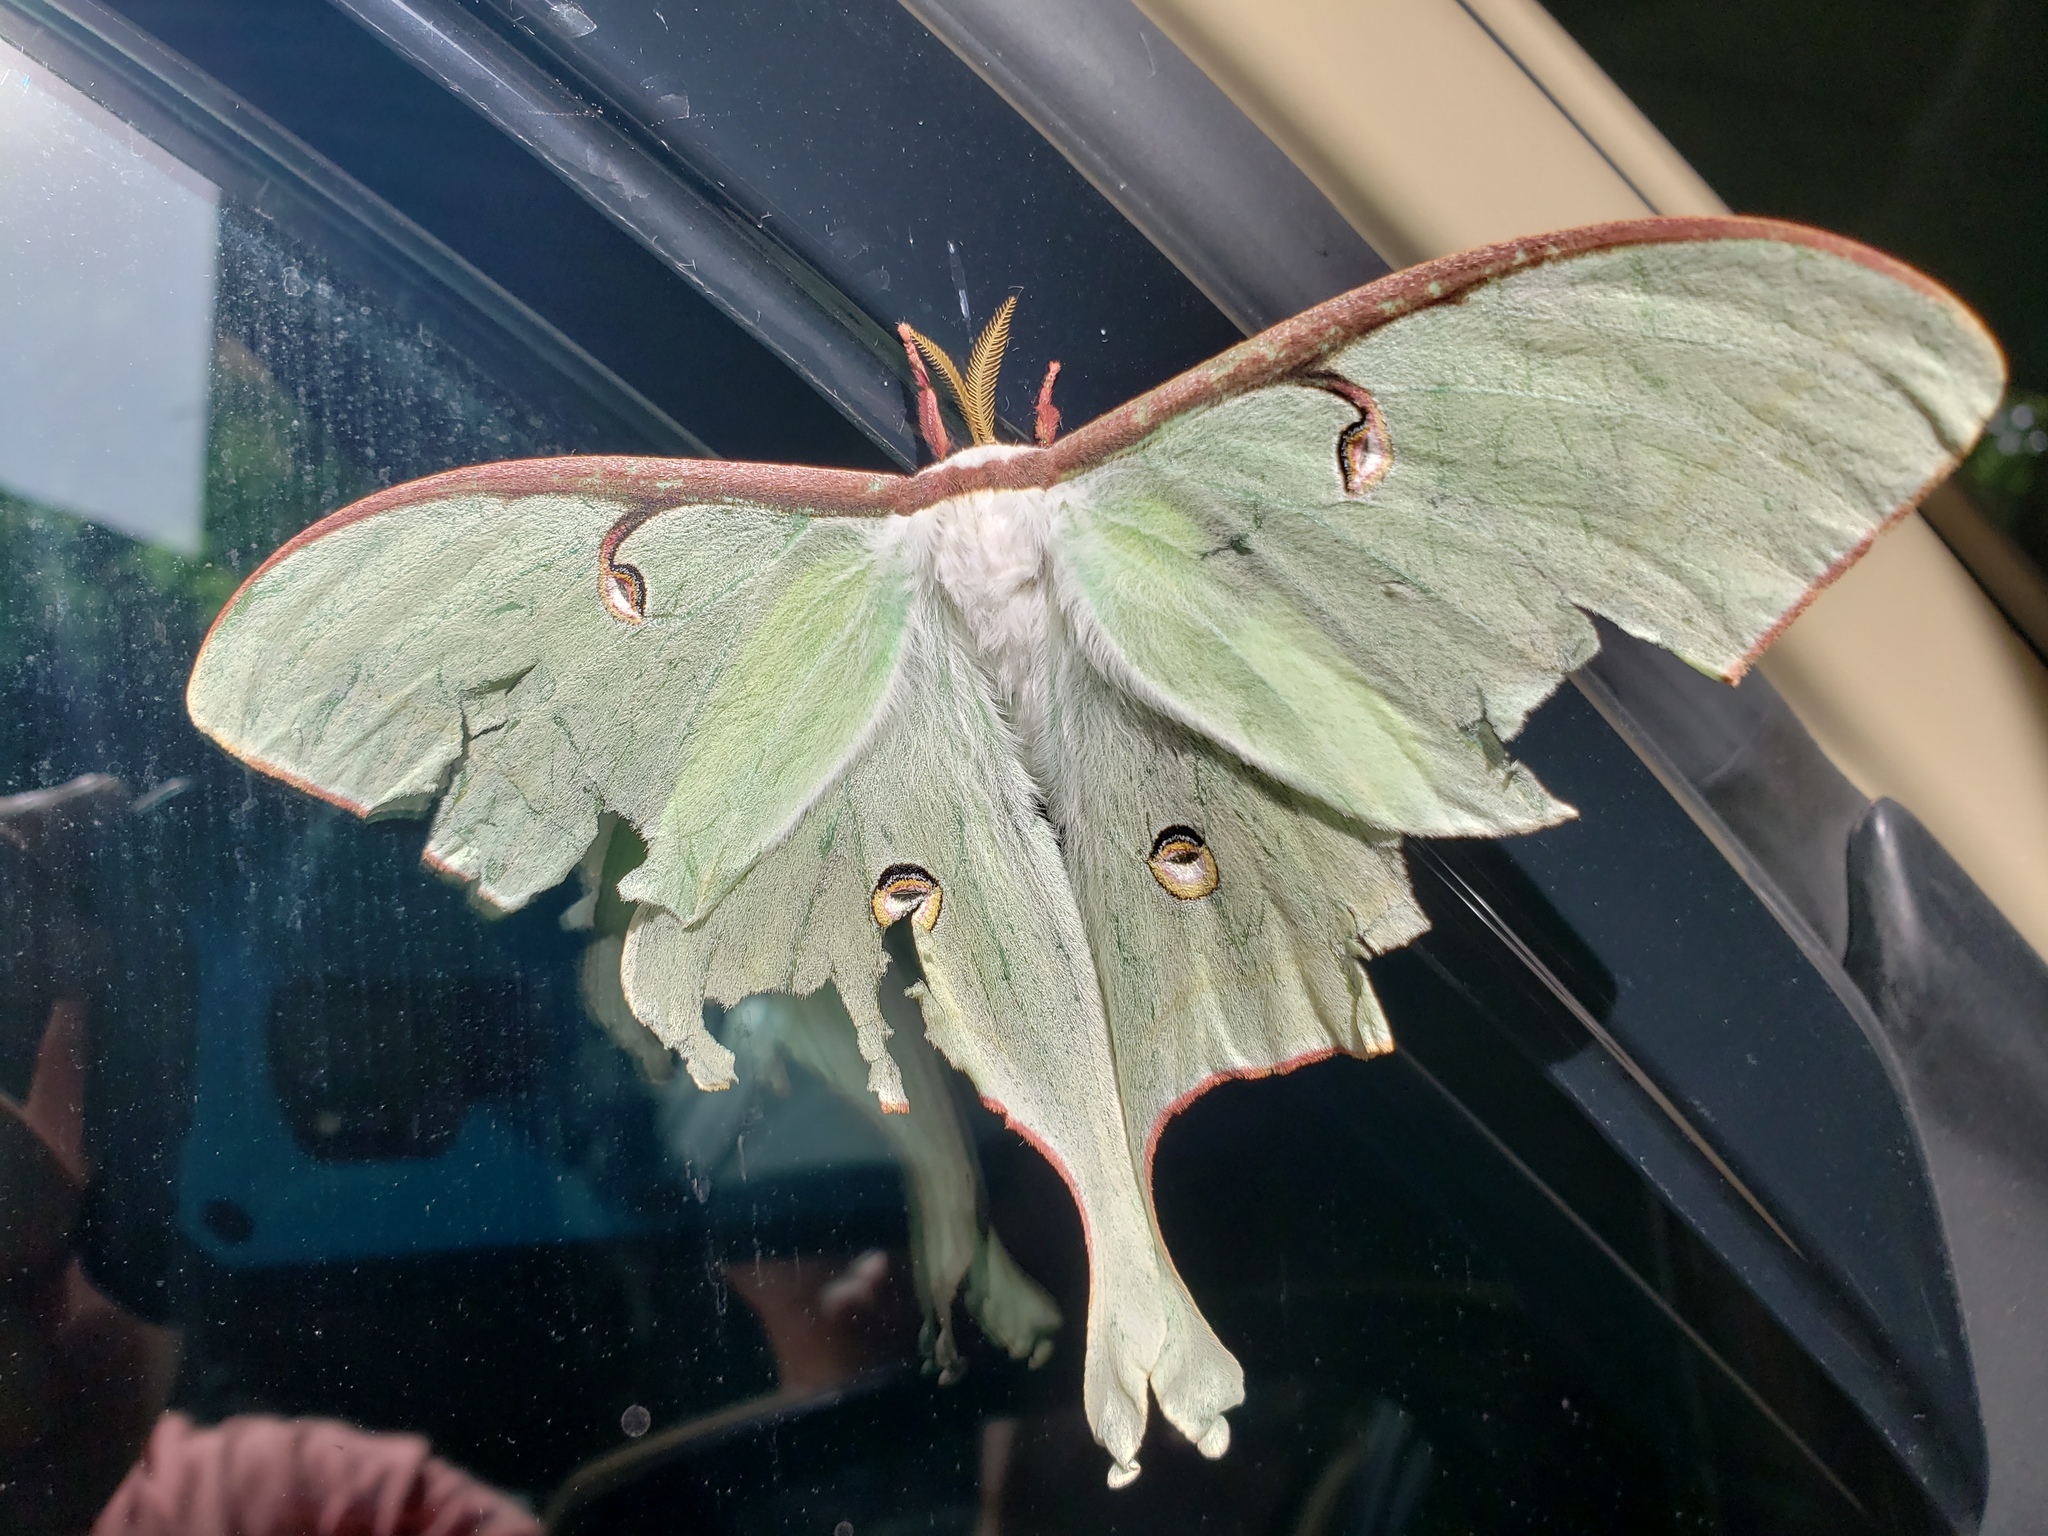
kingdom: Animalia
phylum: Arthropoda
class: Insecta
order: Lepidoptera
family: Saturniidae
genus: Actias
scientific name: Actias luna
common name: Luna moth
